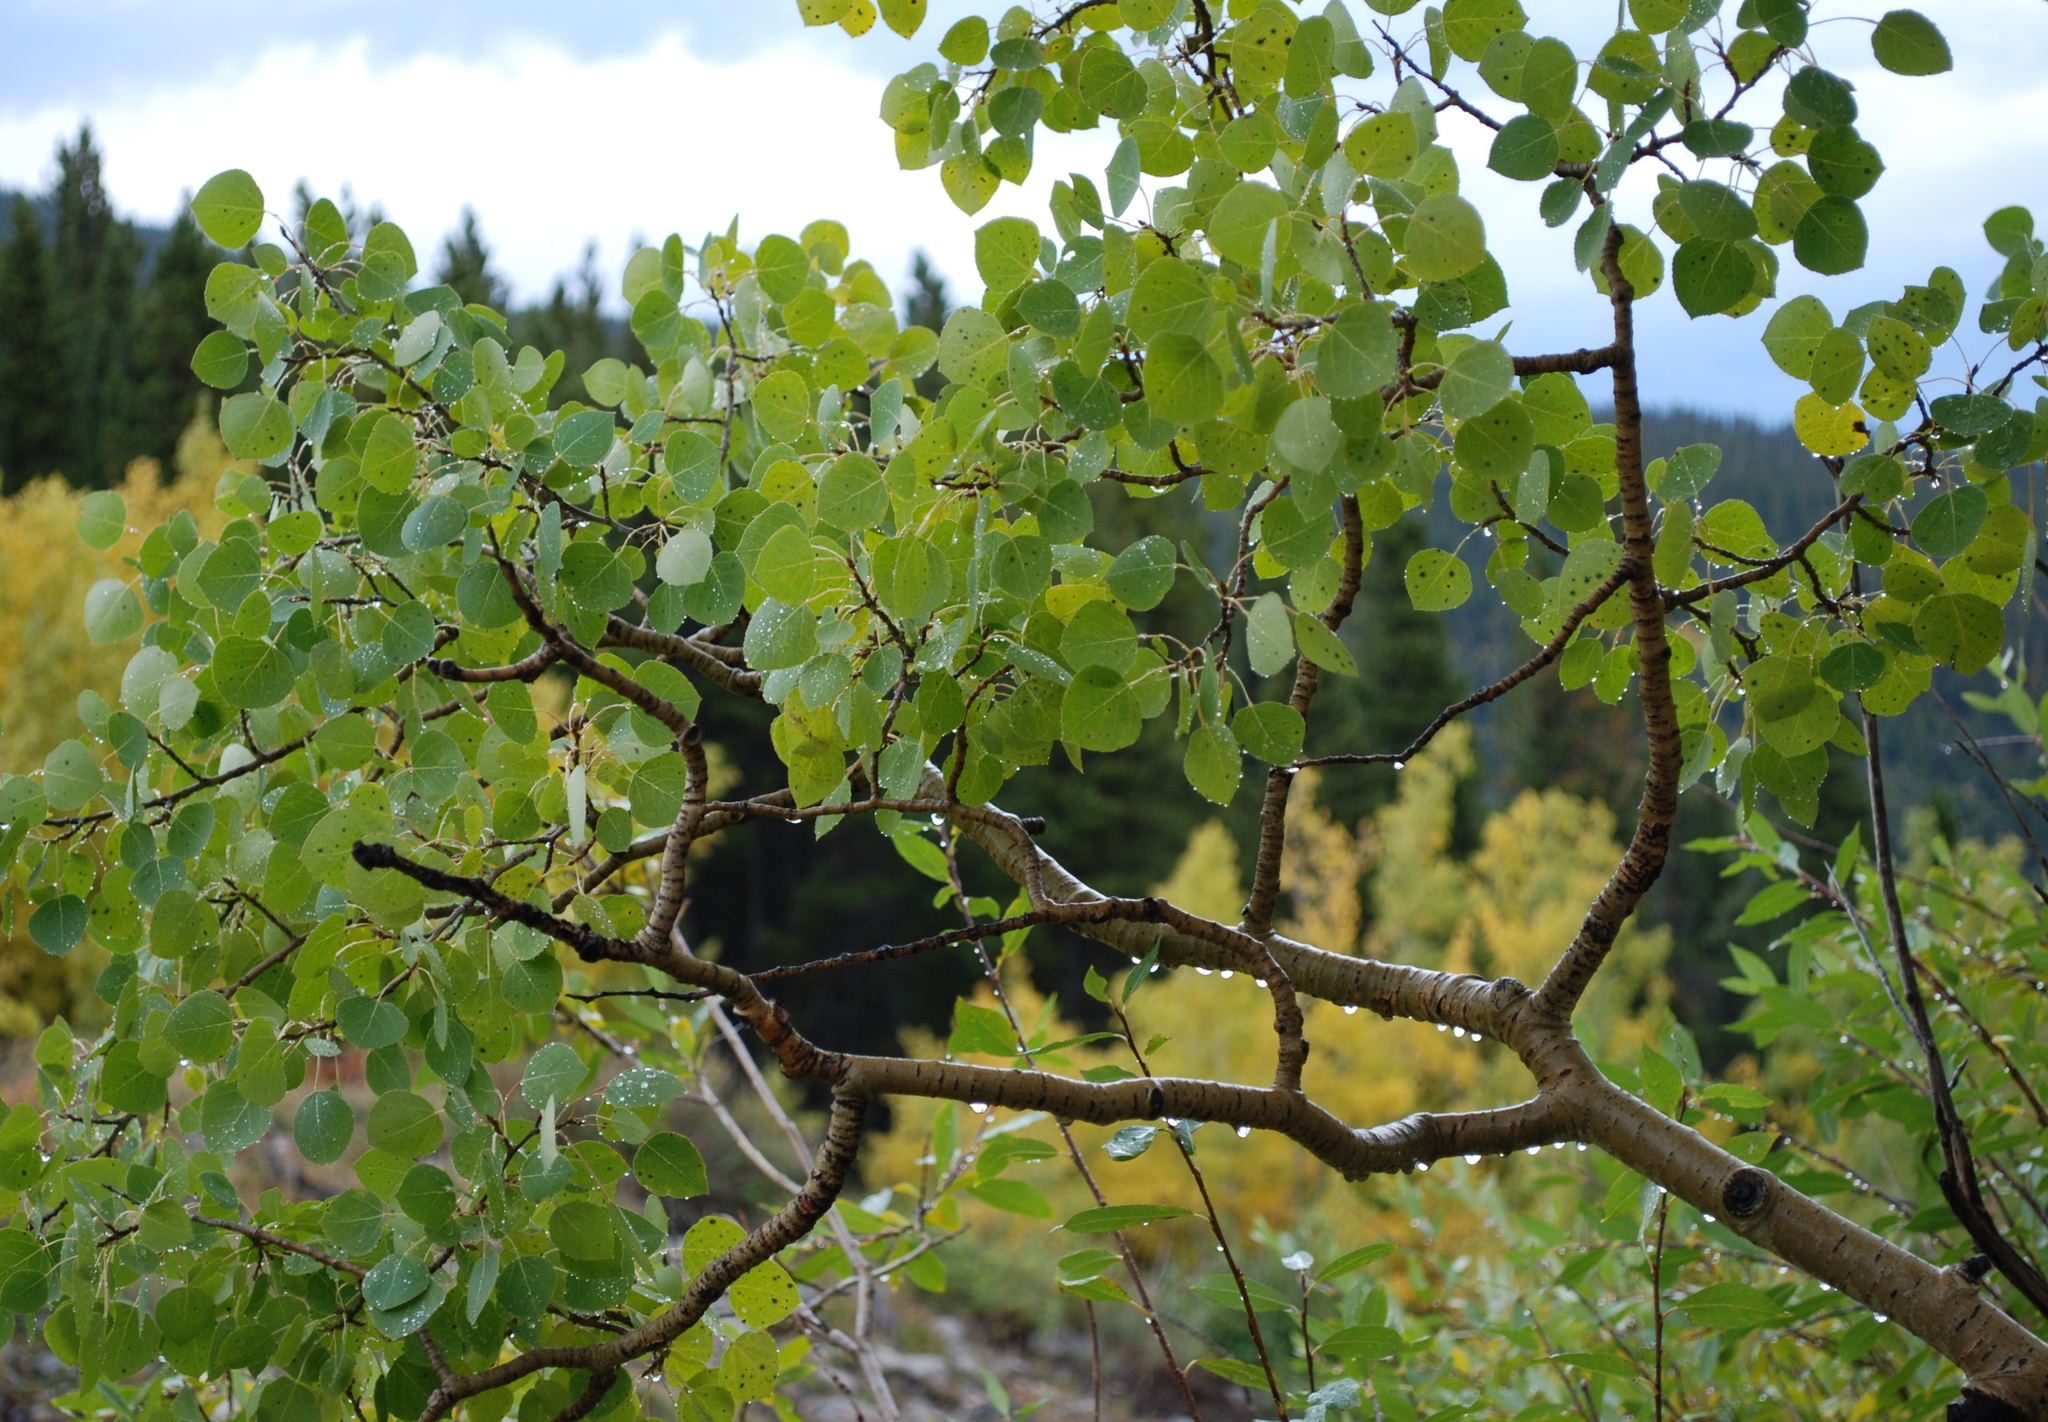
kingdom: Plantae
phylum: Tracheophyta
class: Magnoliopsida
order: Malpighiales
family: Salicaceae
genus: Populus
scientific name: Populus tremuloides
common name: Quaking aspen
